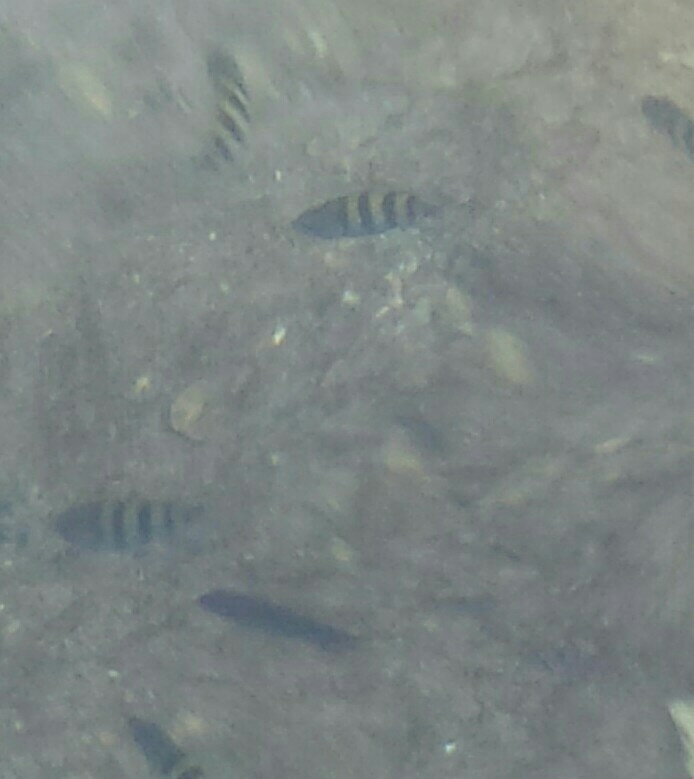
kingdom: Animalia
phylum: Chordata
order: Perciformes
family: Pomacentridae
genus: Abudefduf
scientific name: Abudefduf saxatilis
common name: Sergeant major
